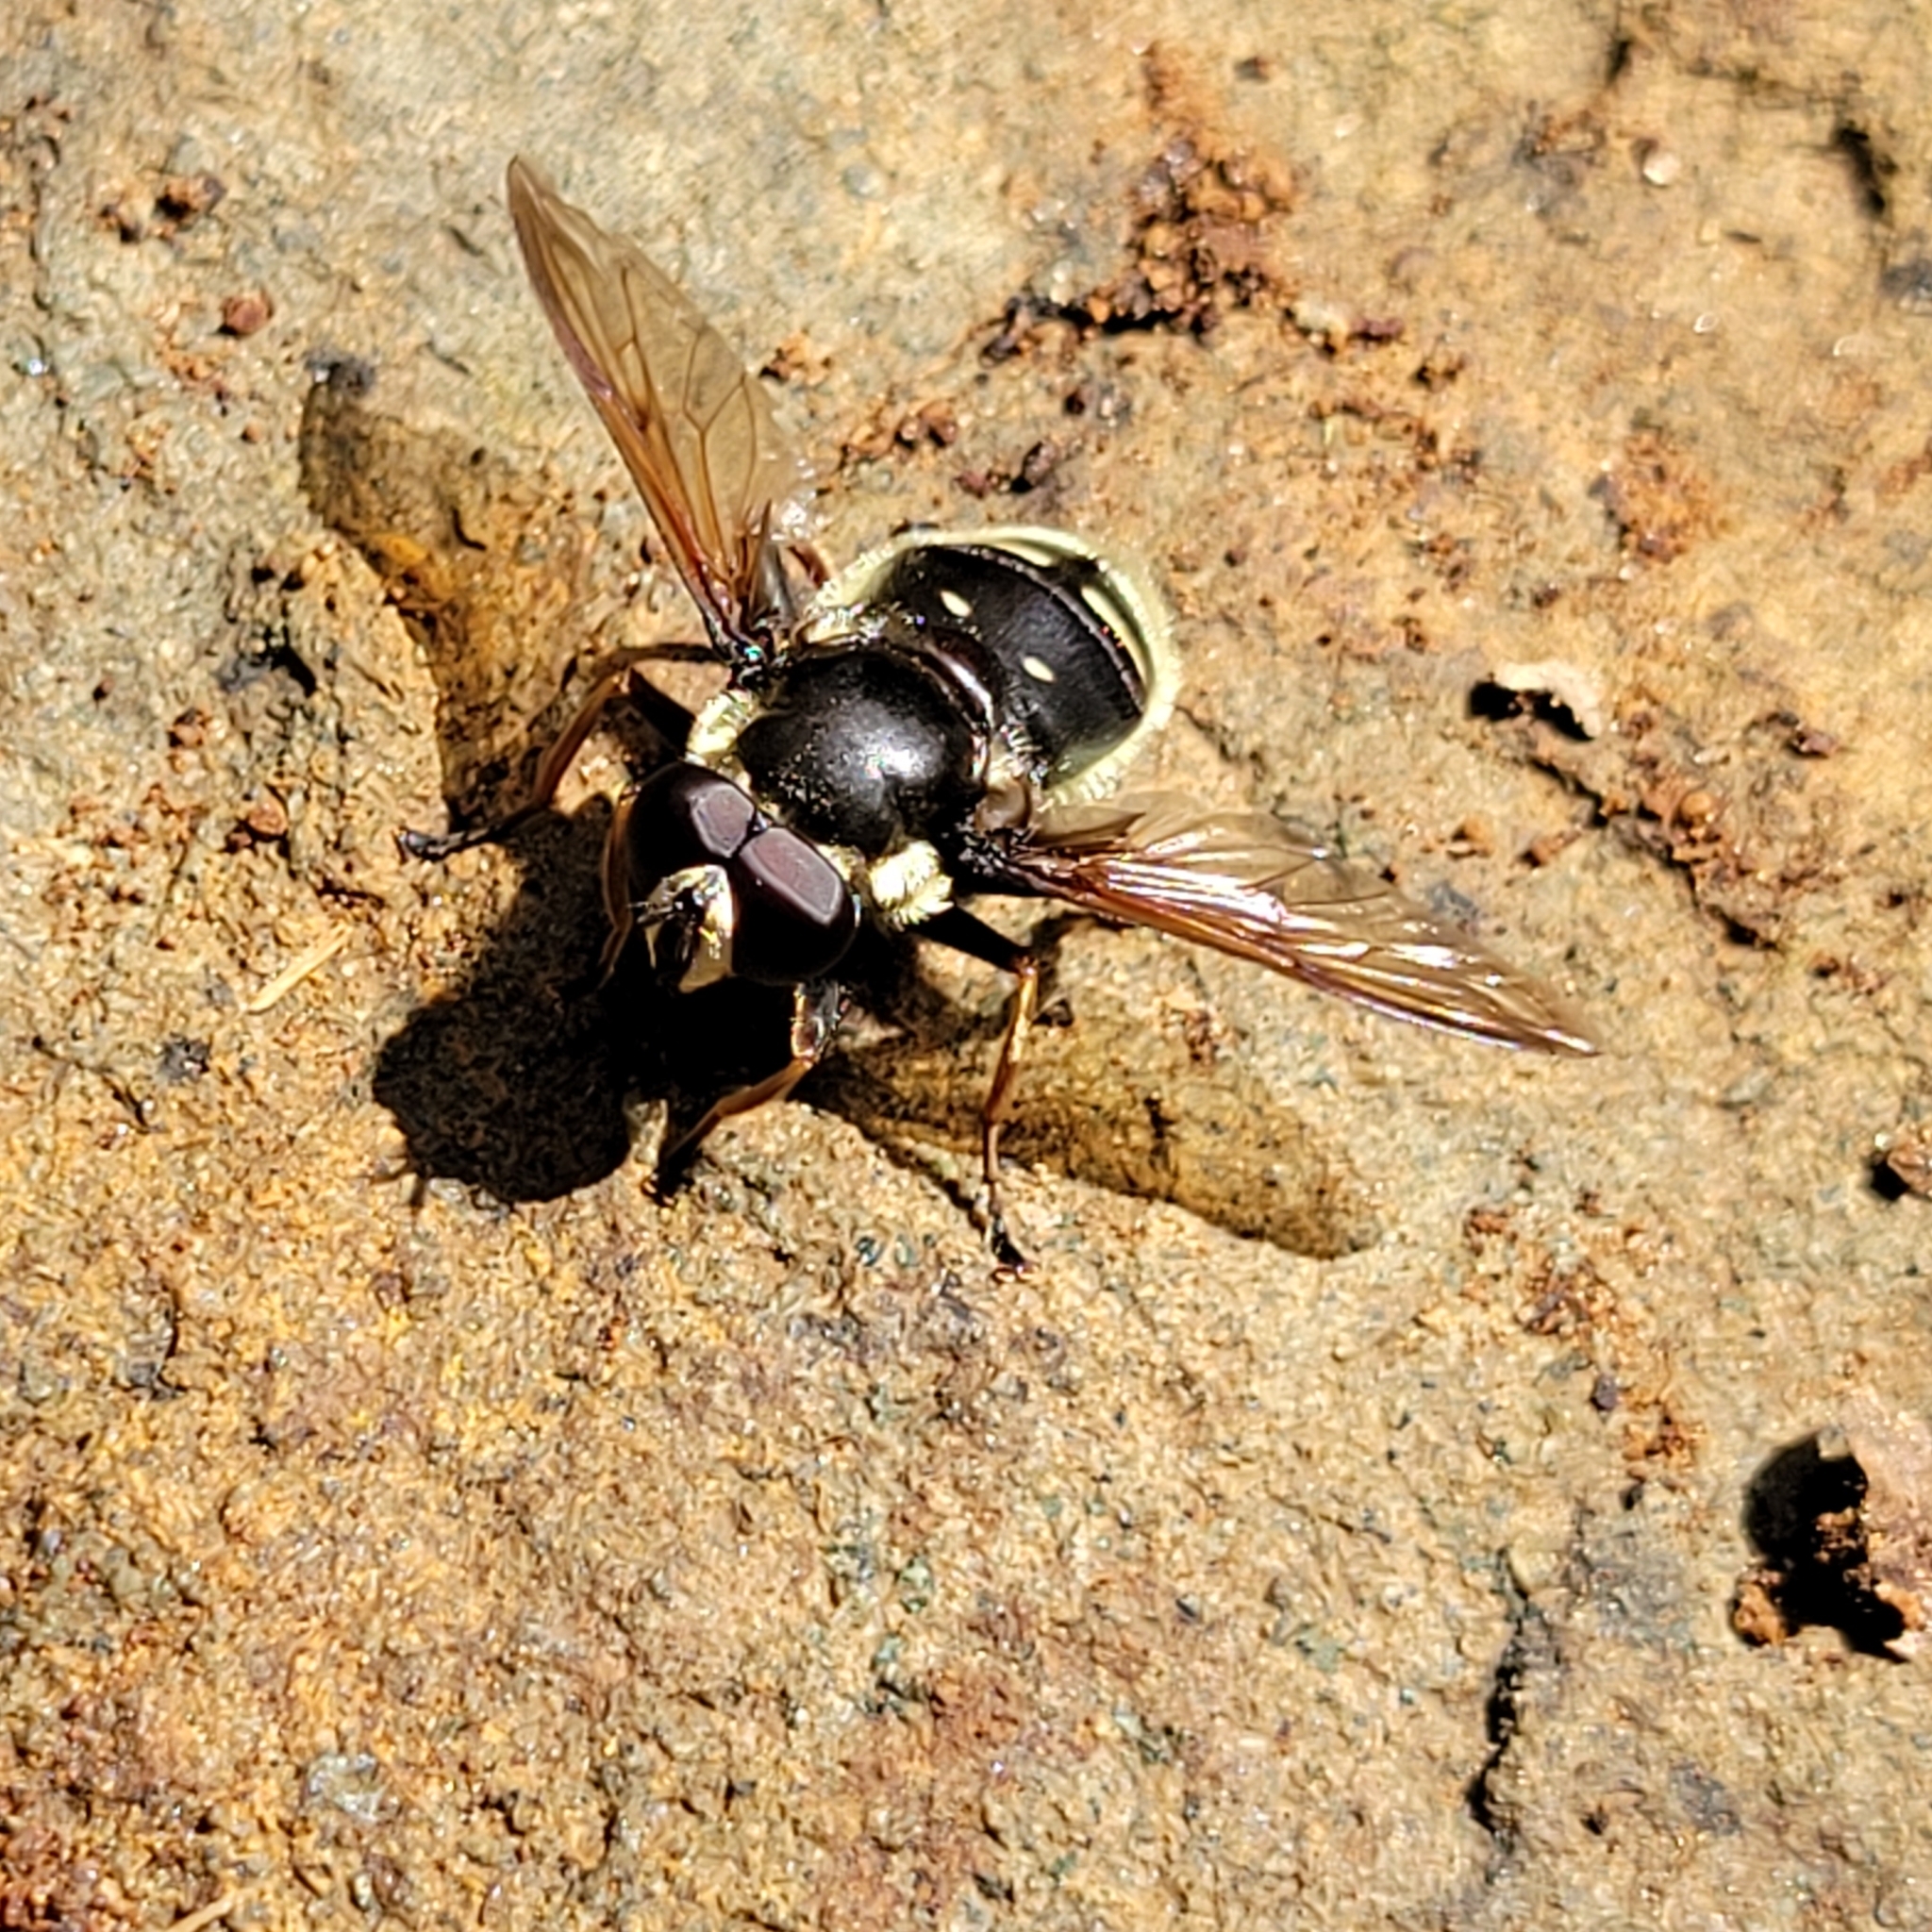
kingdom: Animalia
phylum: Arthropoda
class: Insecta
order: Diptera
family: Syrphidae
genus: Sericomyia
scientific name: Sericomyia militaris
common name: Narrow-banded pond fly
